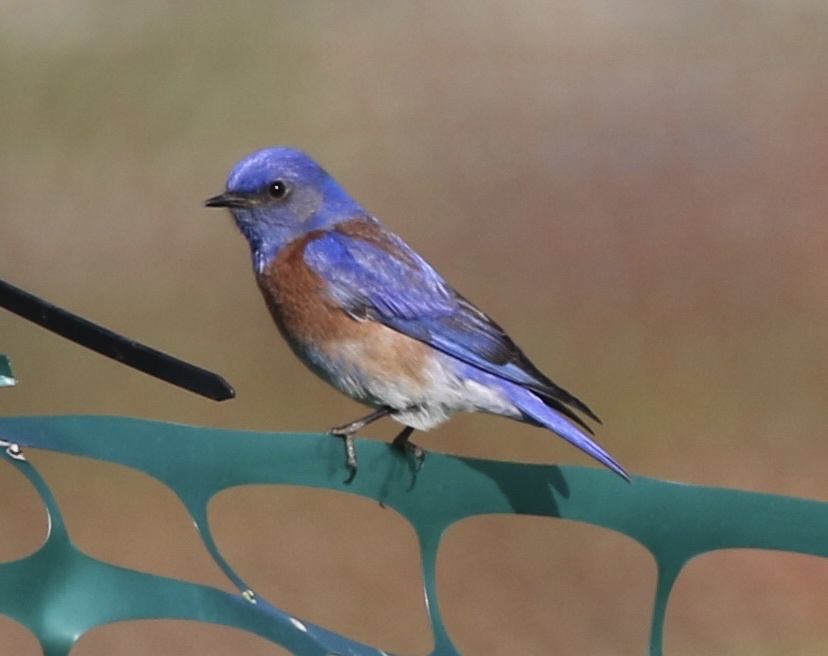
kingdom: Animalia
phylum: Chordata
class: Aves
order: Passeriformes
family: Turdidae
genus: Sialia
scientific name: Sialia mexicana
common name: Western bluebird
